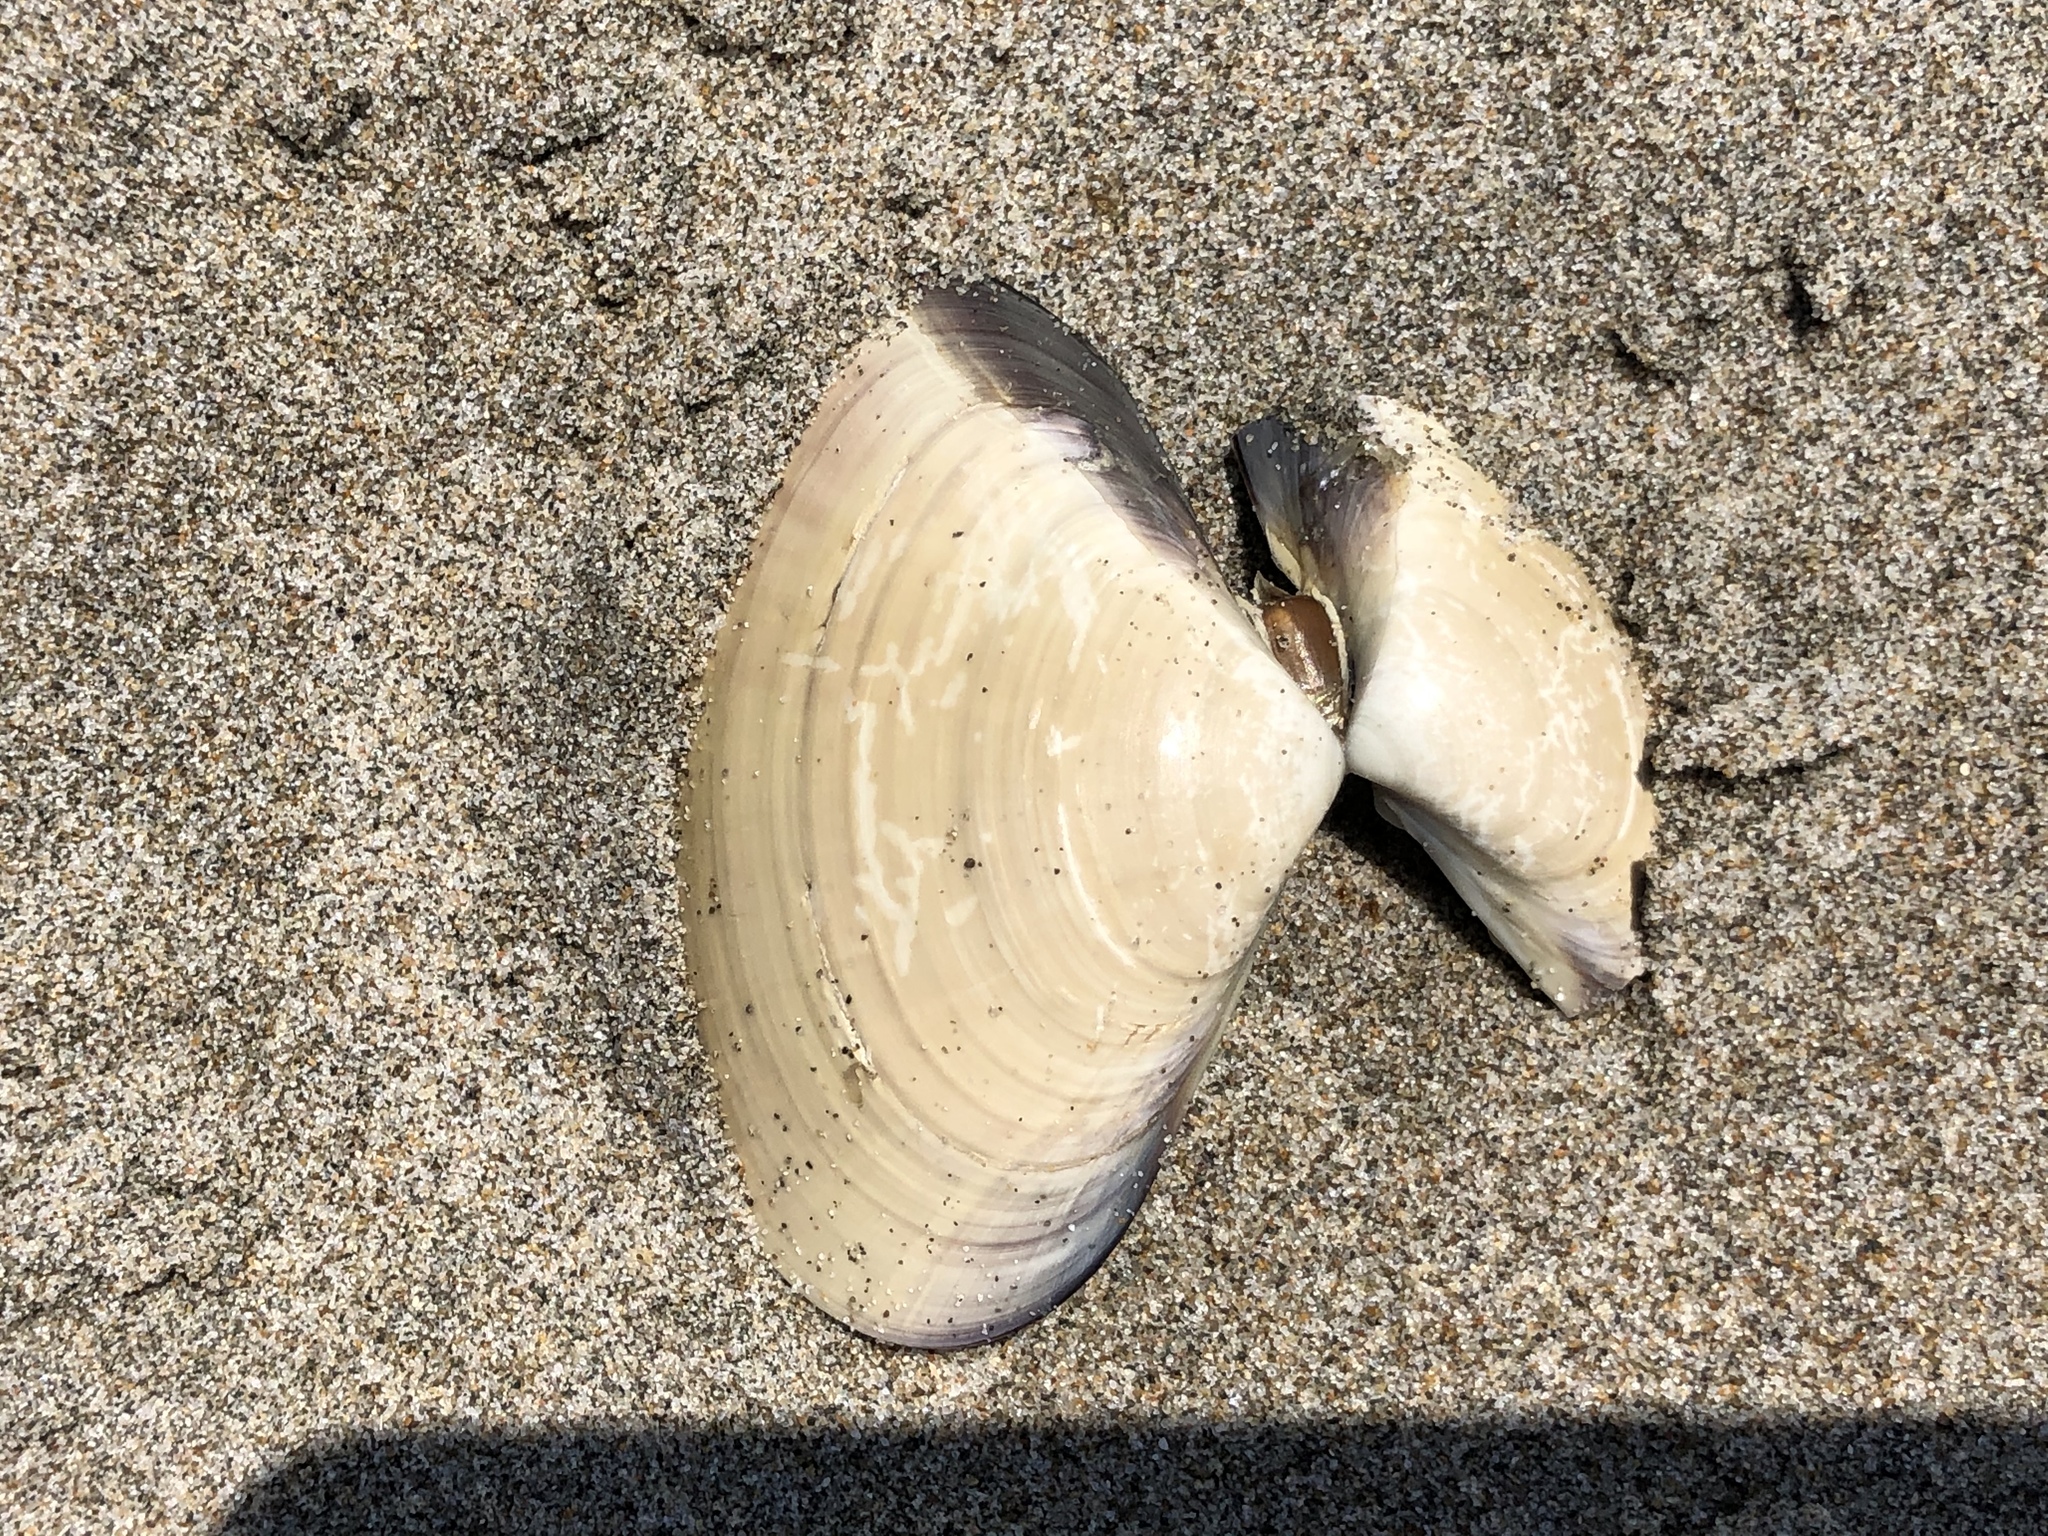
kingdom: Animalia
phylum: Mollusca
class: Bivalvia
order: Venerida
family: Veneridae
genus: Tivela
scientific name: Tivela stultorum
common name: Pismo clam
